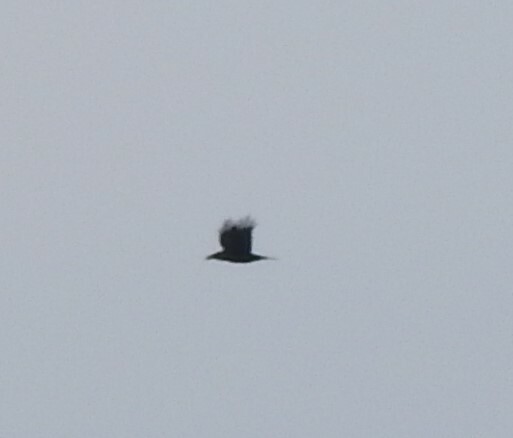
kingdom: Animalia
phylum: Chordata
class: Aves
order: Passeriformes
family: Corvidae
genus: Corvus
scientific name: Corvus corax
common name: Common raven
